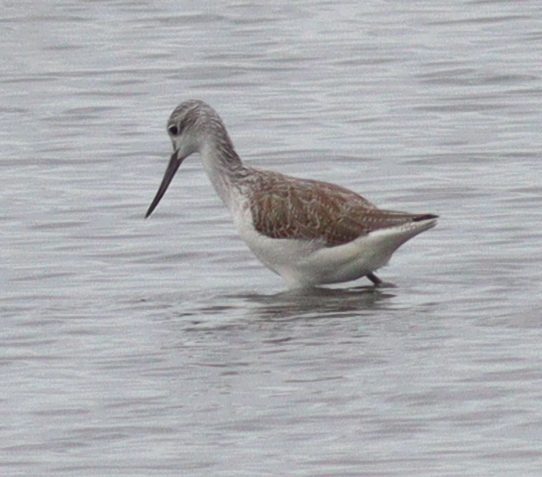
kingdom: Animalia
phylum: Chordata
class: Aves
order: Charadriiformes
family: Scolopacidae
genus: Tringa
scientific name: Tringa nebularia
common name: Common greenshank
